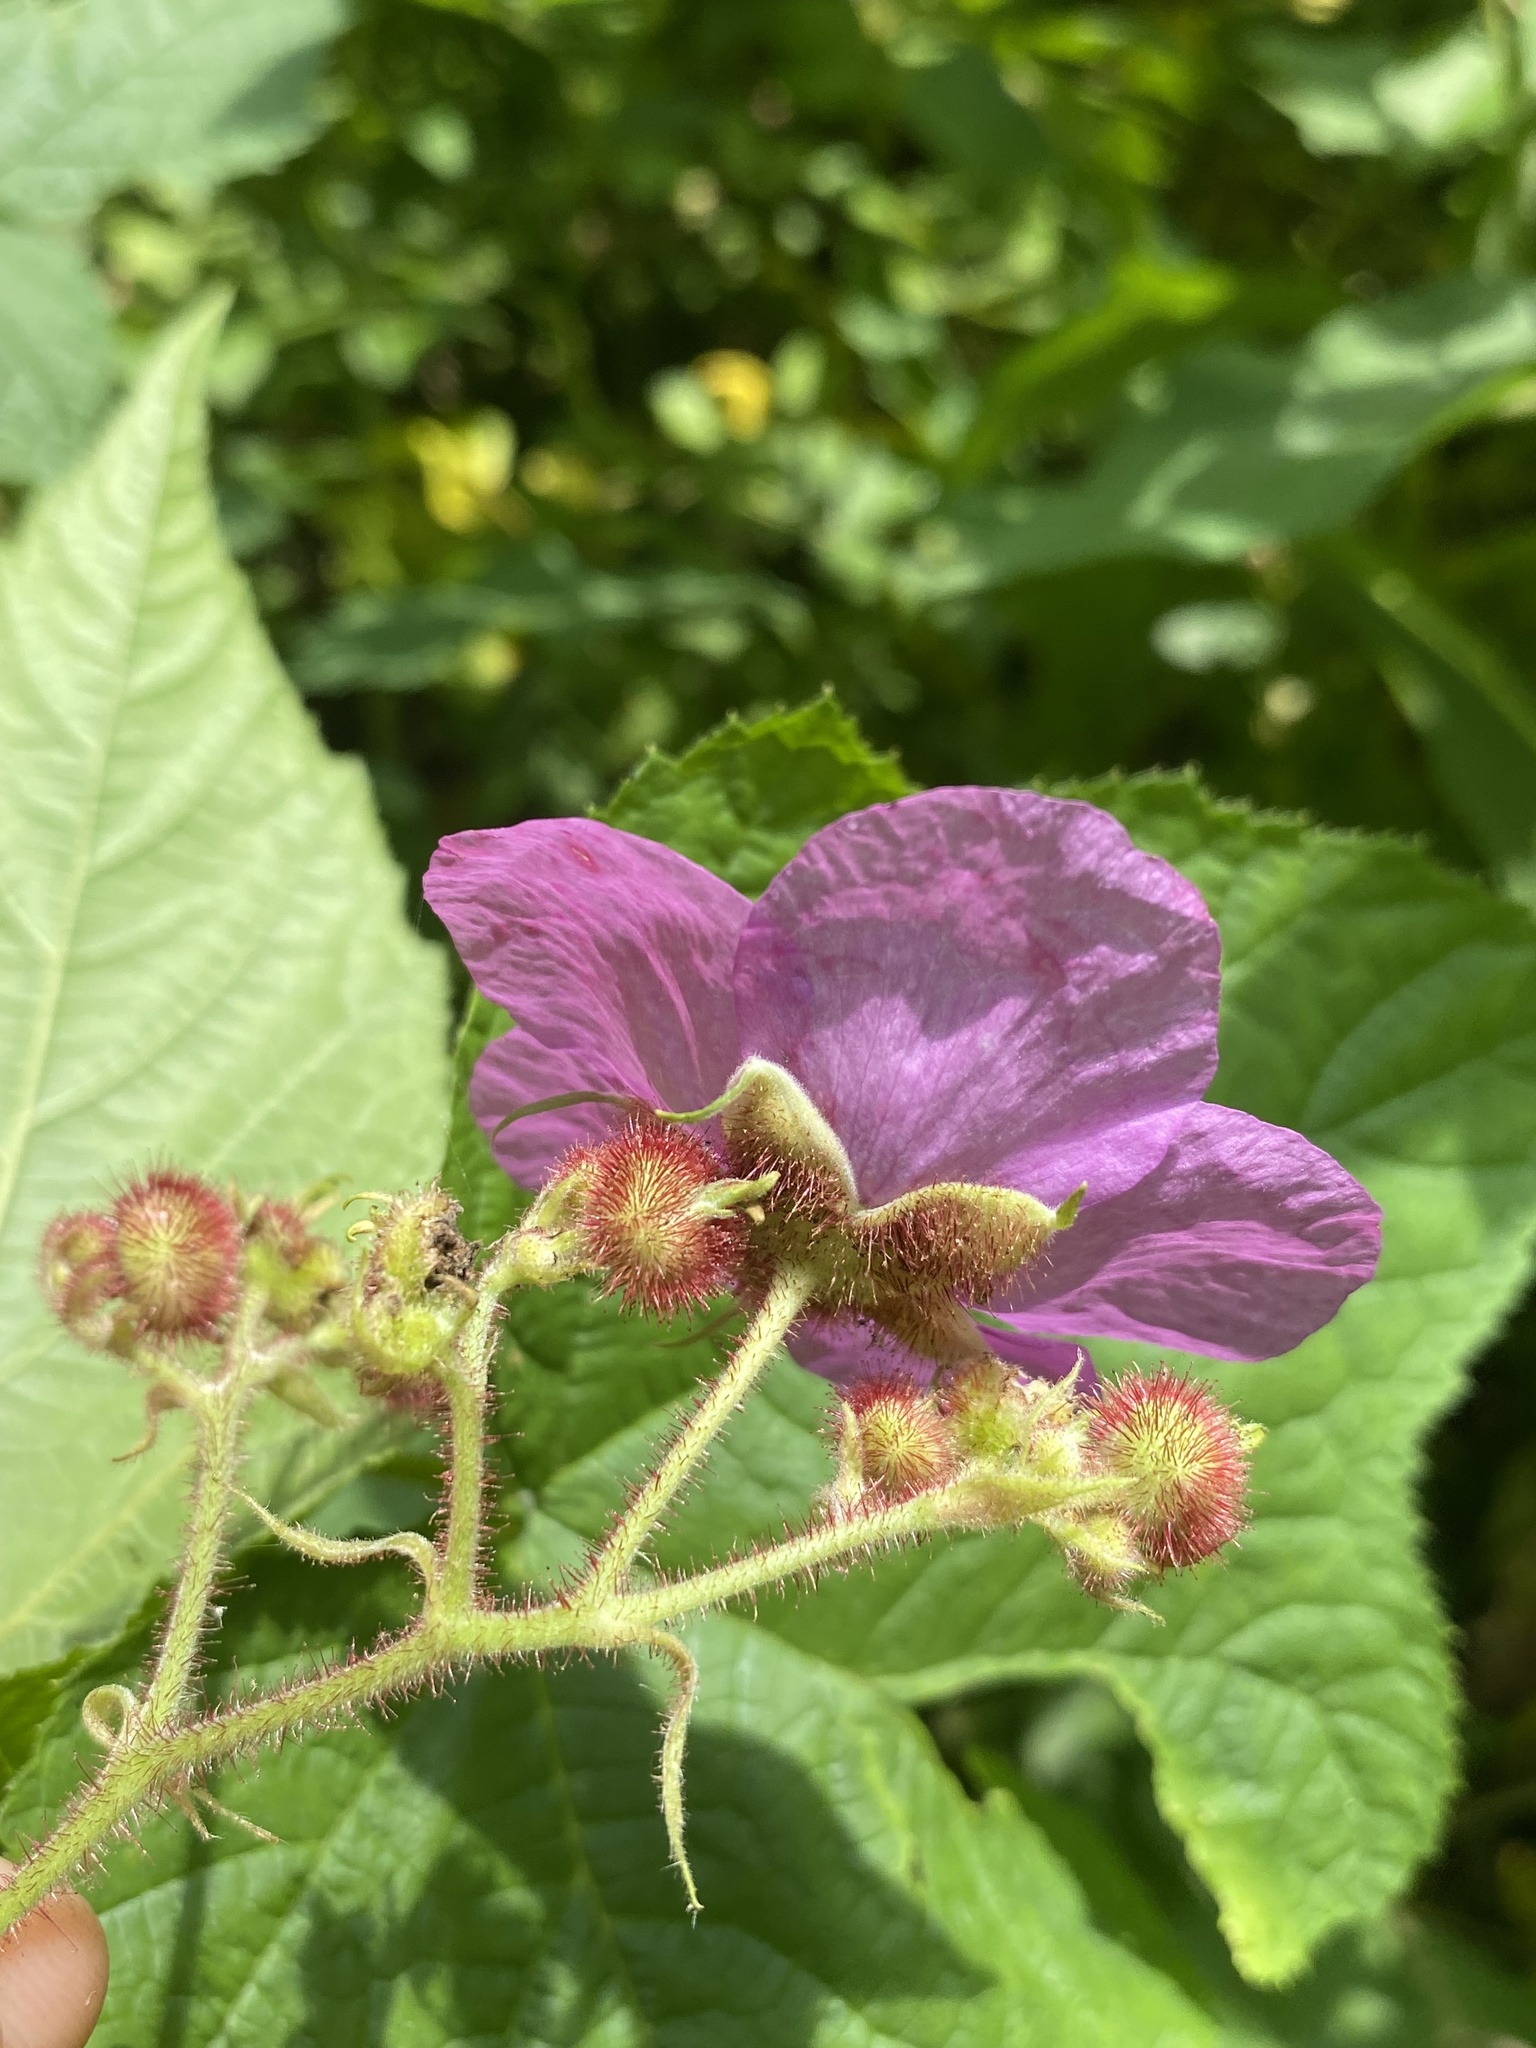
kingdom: Plantae
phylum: Tracheophyta
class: Magnoliopsida
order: Rosales
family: Rosaceae
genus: Rubus
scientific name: Rubus odoratus
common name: Purple-flowered raspberry
